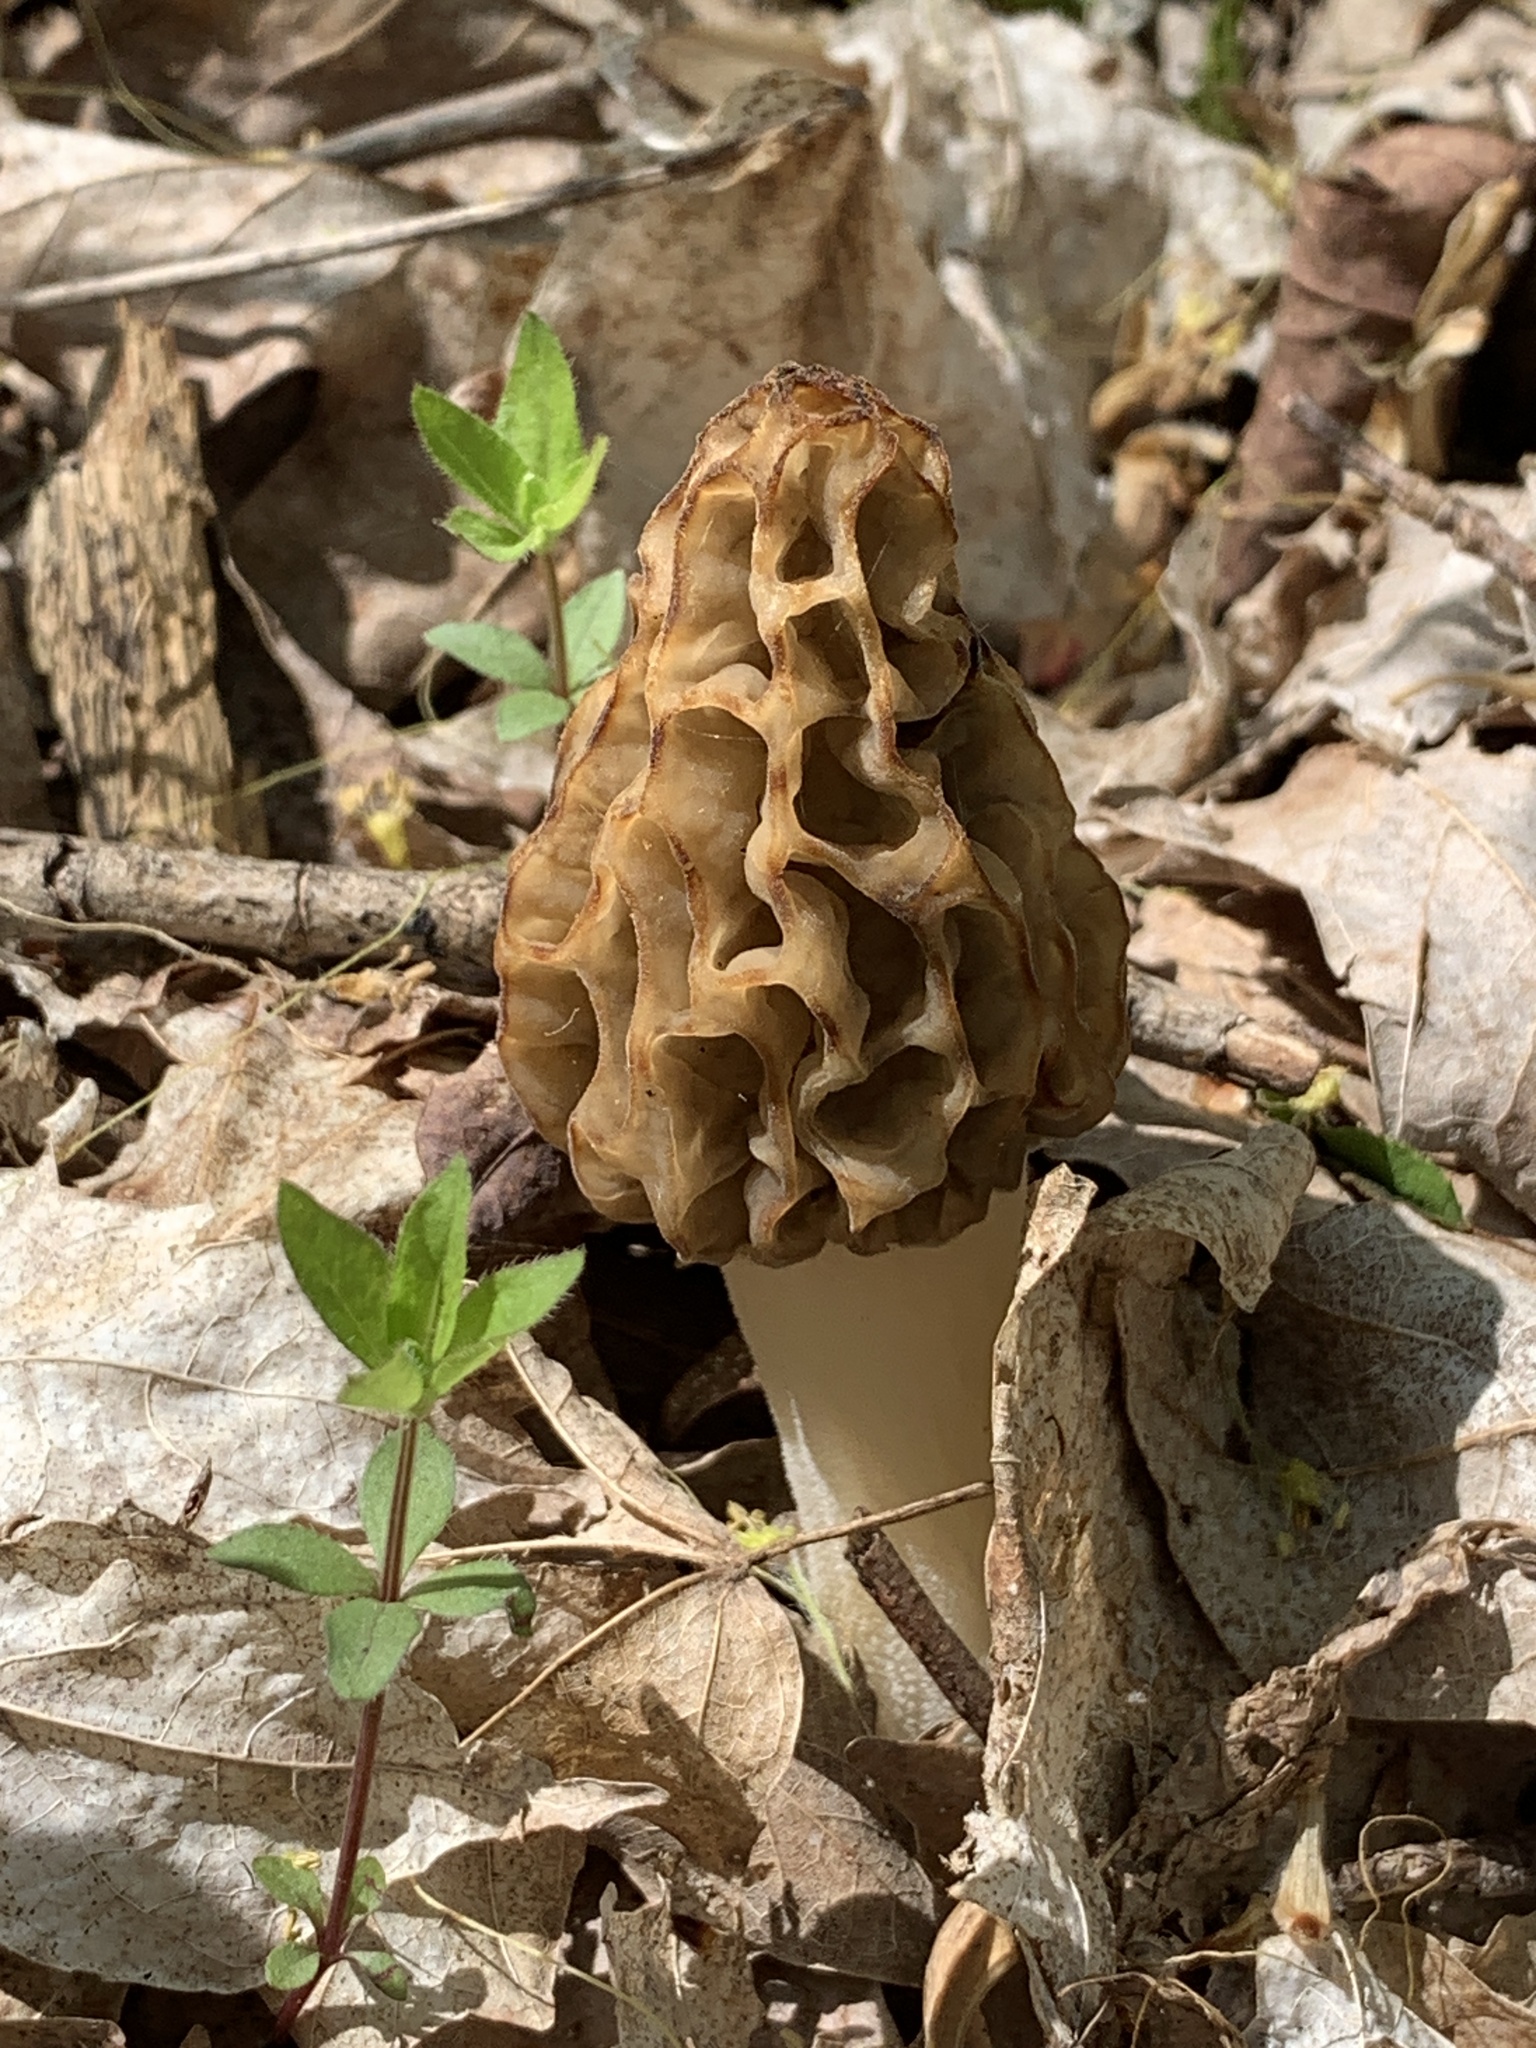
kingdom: Fungi
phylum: Ascomycota
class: Pezizomycetes
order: Pezizales
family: Morchellaceae
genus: Morchella
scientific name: Morchella americana
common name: White morel
